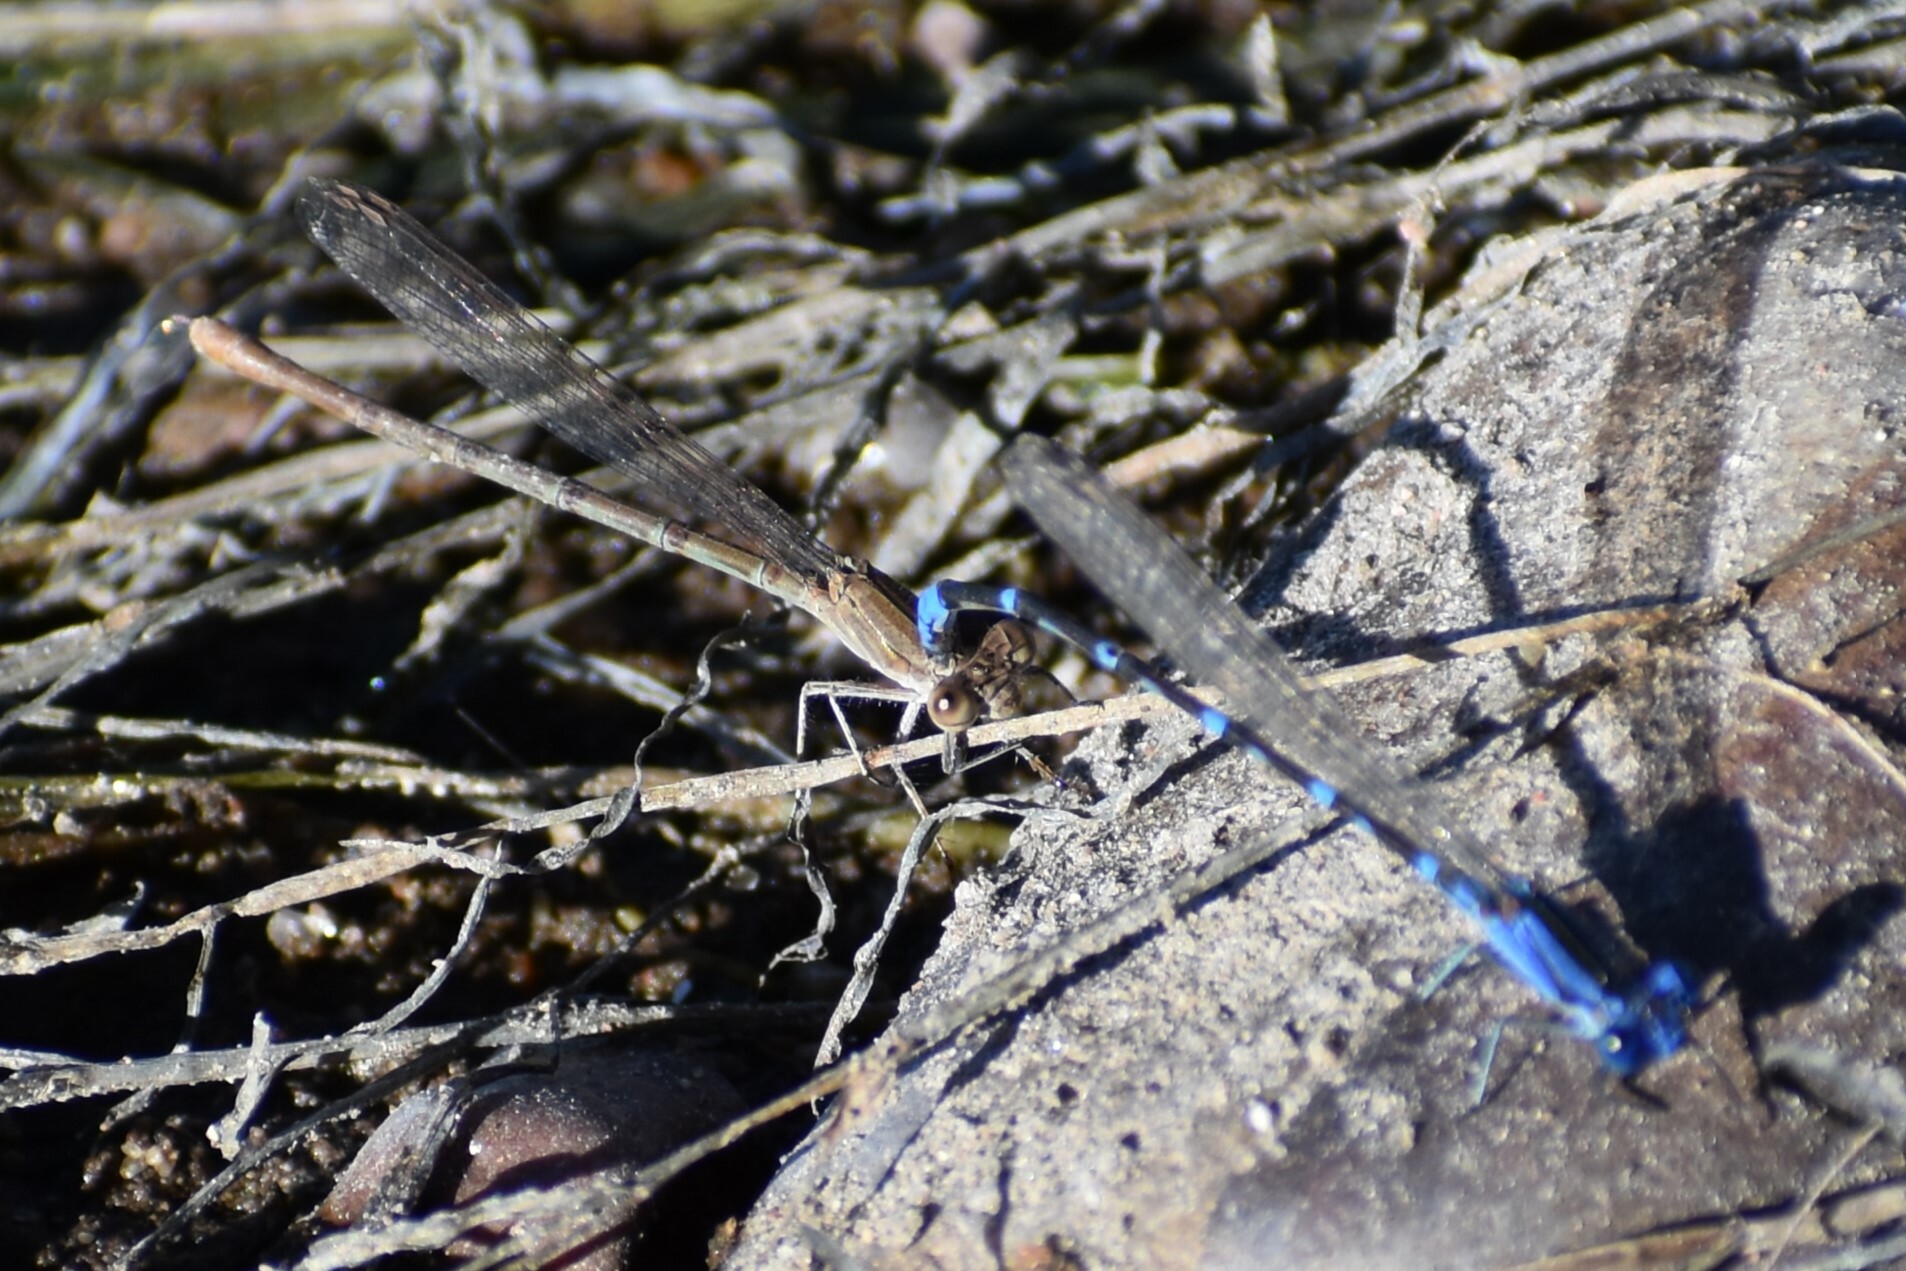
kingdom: Animalia
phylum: Arthropoda
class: Insecta
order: Odonata
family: Coenagrionidae
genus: Argia
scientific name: Argia sedula
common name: Blue-ringed dancer
